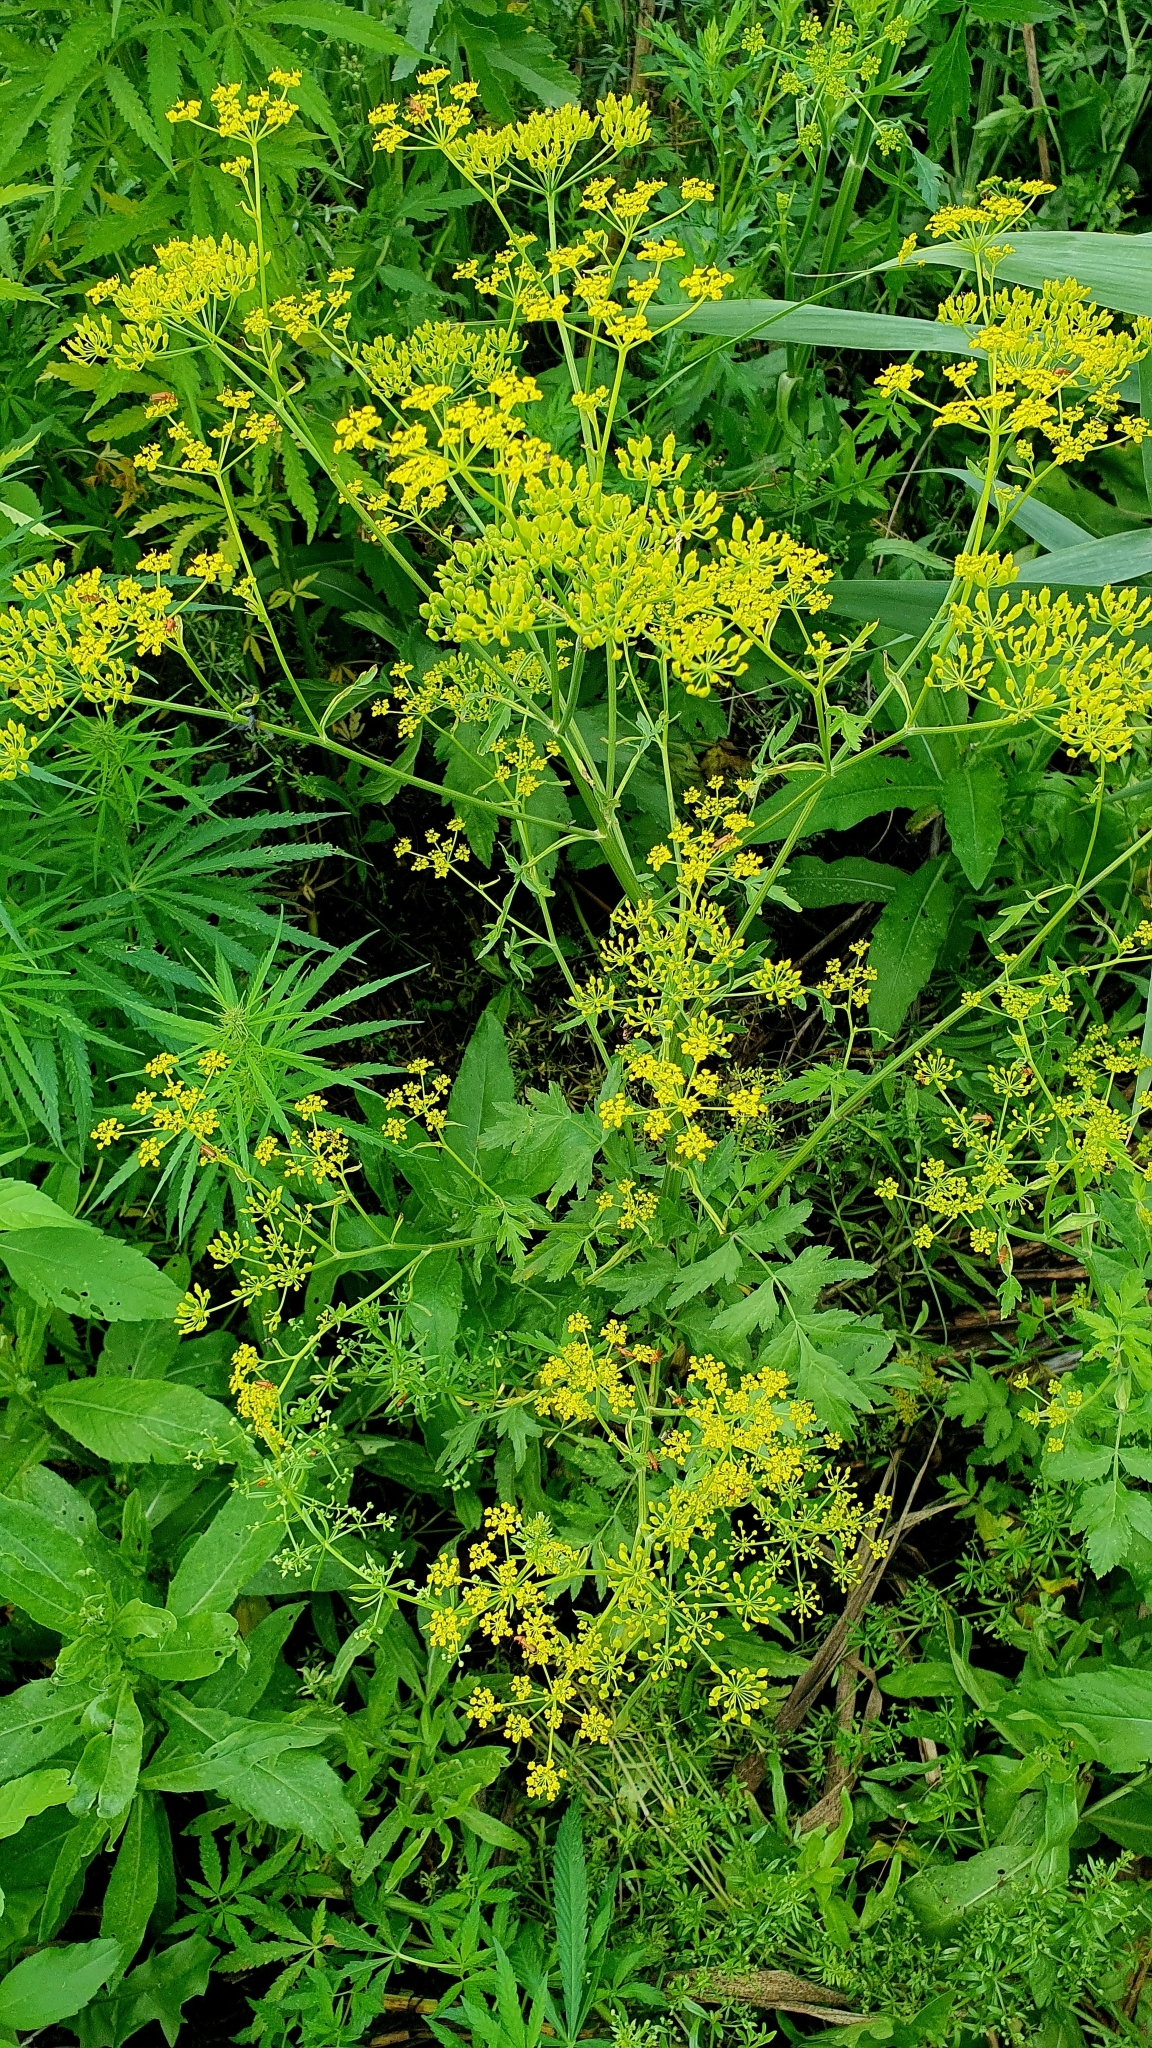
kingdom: Plantae
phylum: Tracheophyta
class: Magnoliopsida
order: Apiales
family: Apiaceae
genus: Pastinaca
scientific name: Pastinaca sativa
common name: Wild parsnip
